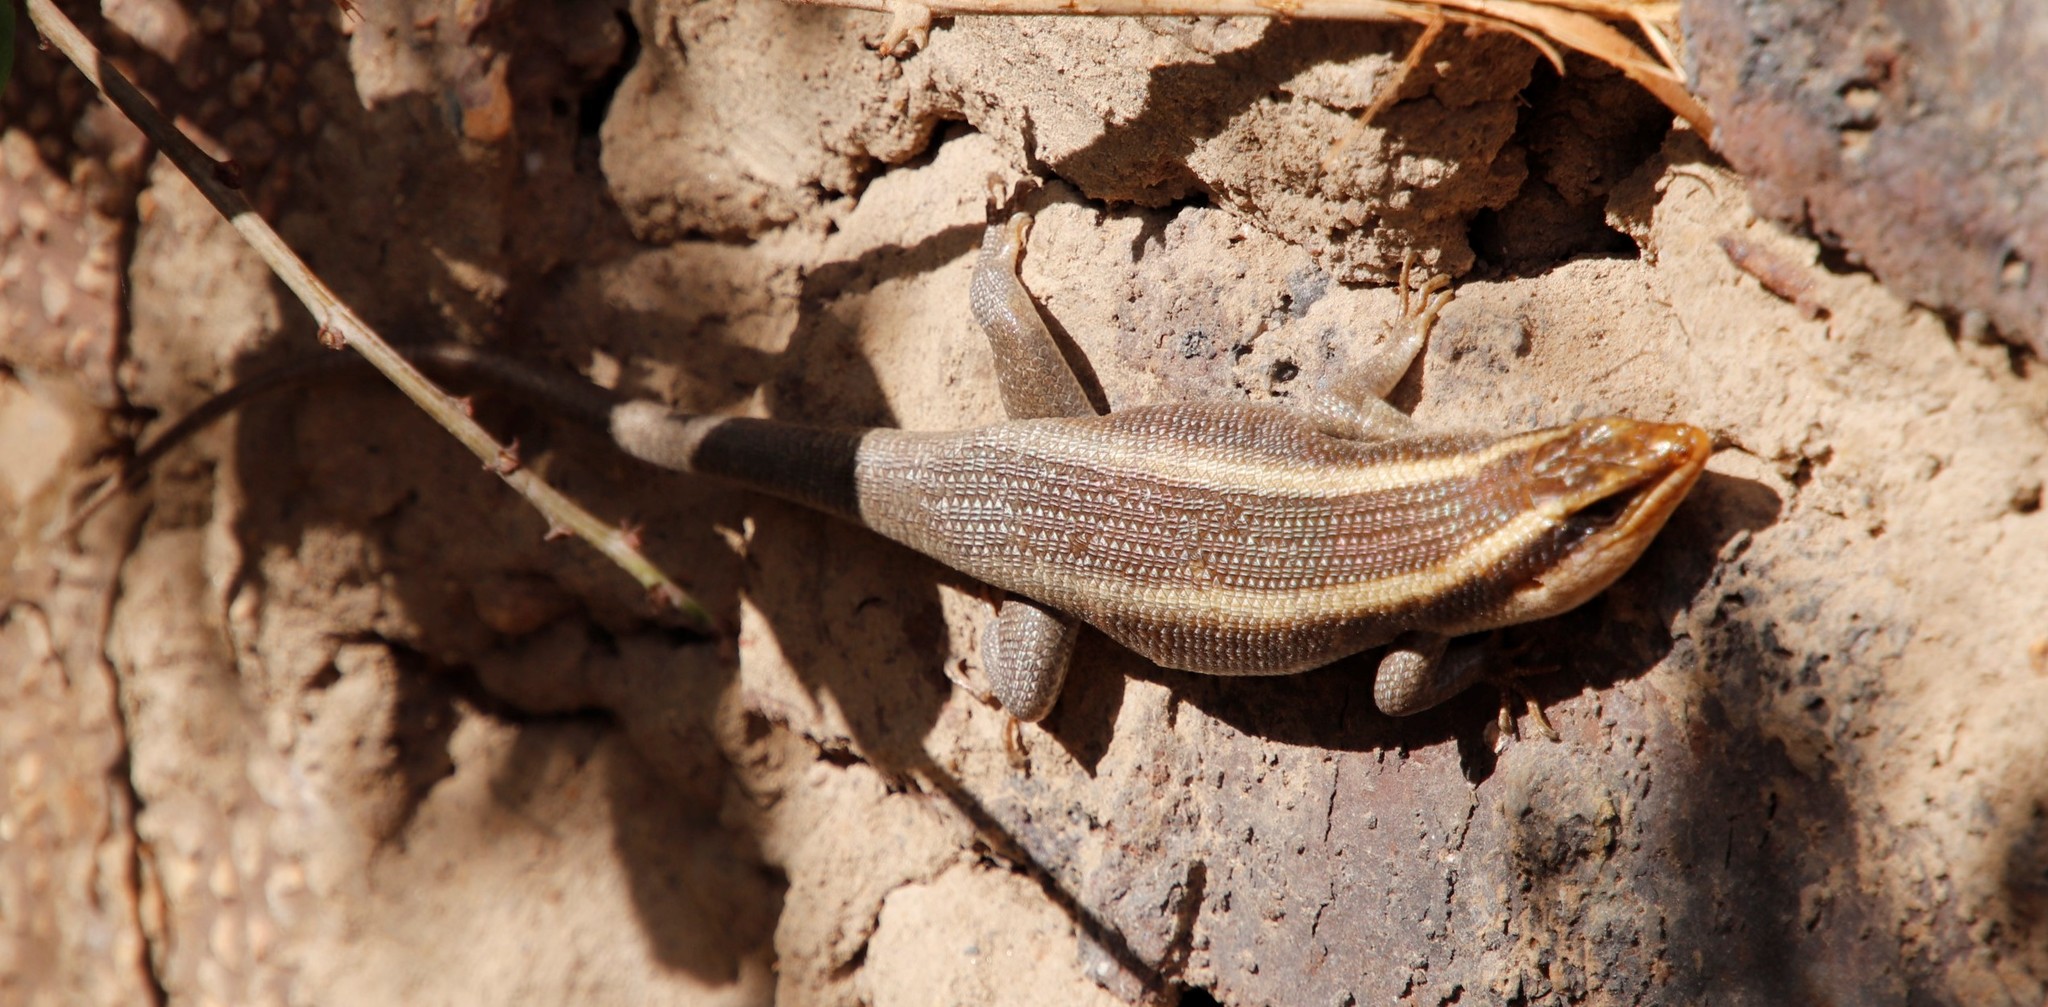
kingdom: Animalia
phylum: Chordata
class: Squamata
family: Scincidae
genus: Trachylepis
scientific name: Trachylepis striata
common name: African striped mabuya
